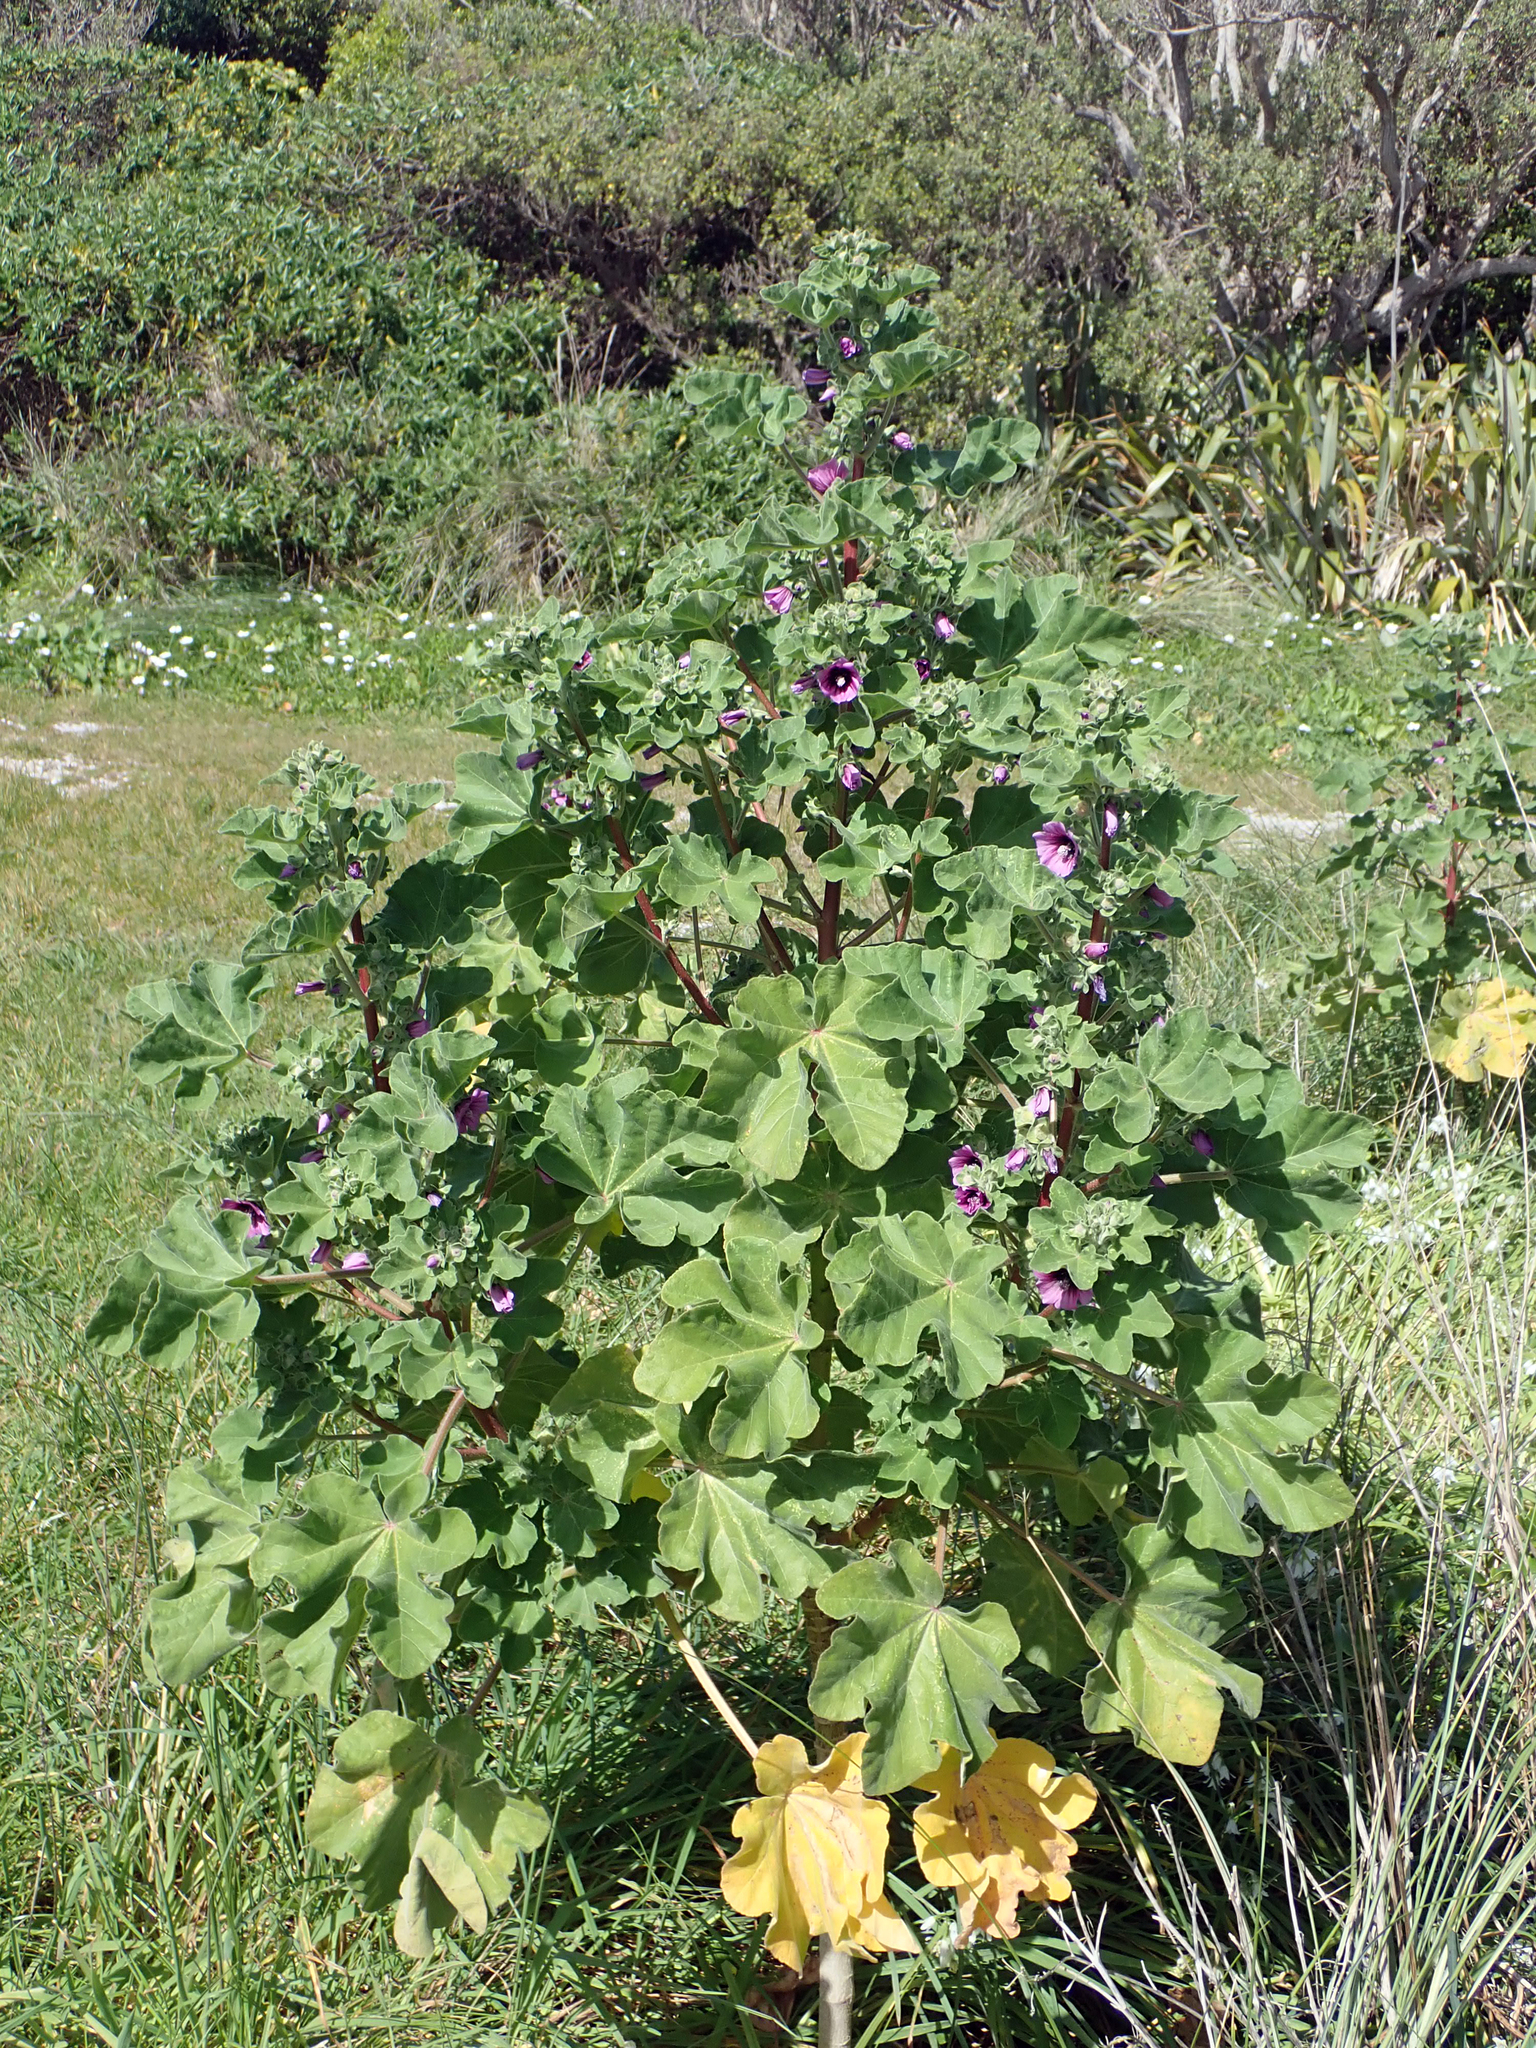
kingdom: Plantae
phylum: Tracheophyta
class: Magnoliopsida
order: Malvales
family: Malvaceae
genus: Malva
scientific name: Malva arborea
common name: Tree mallow
